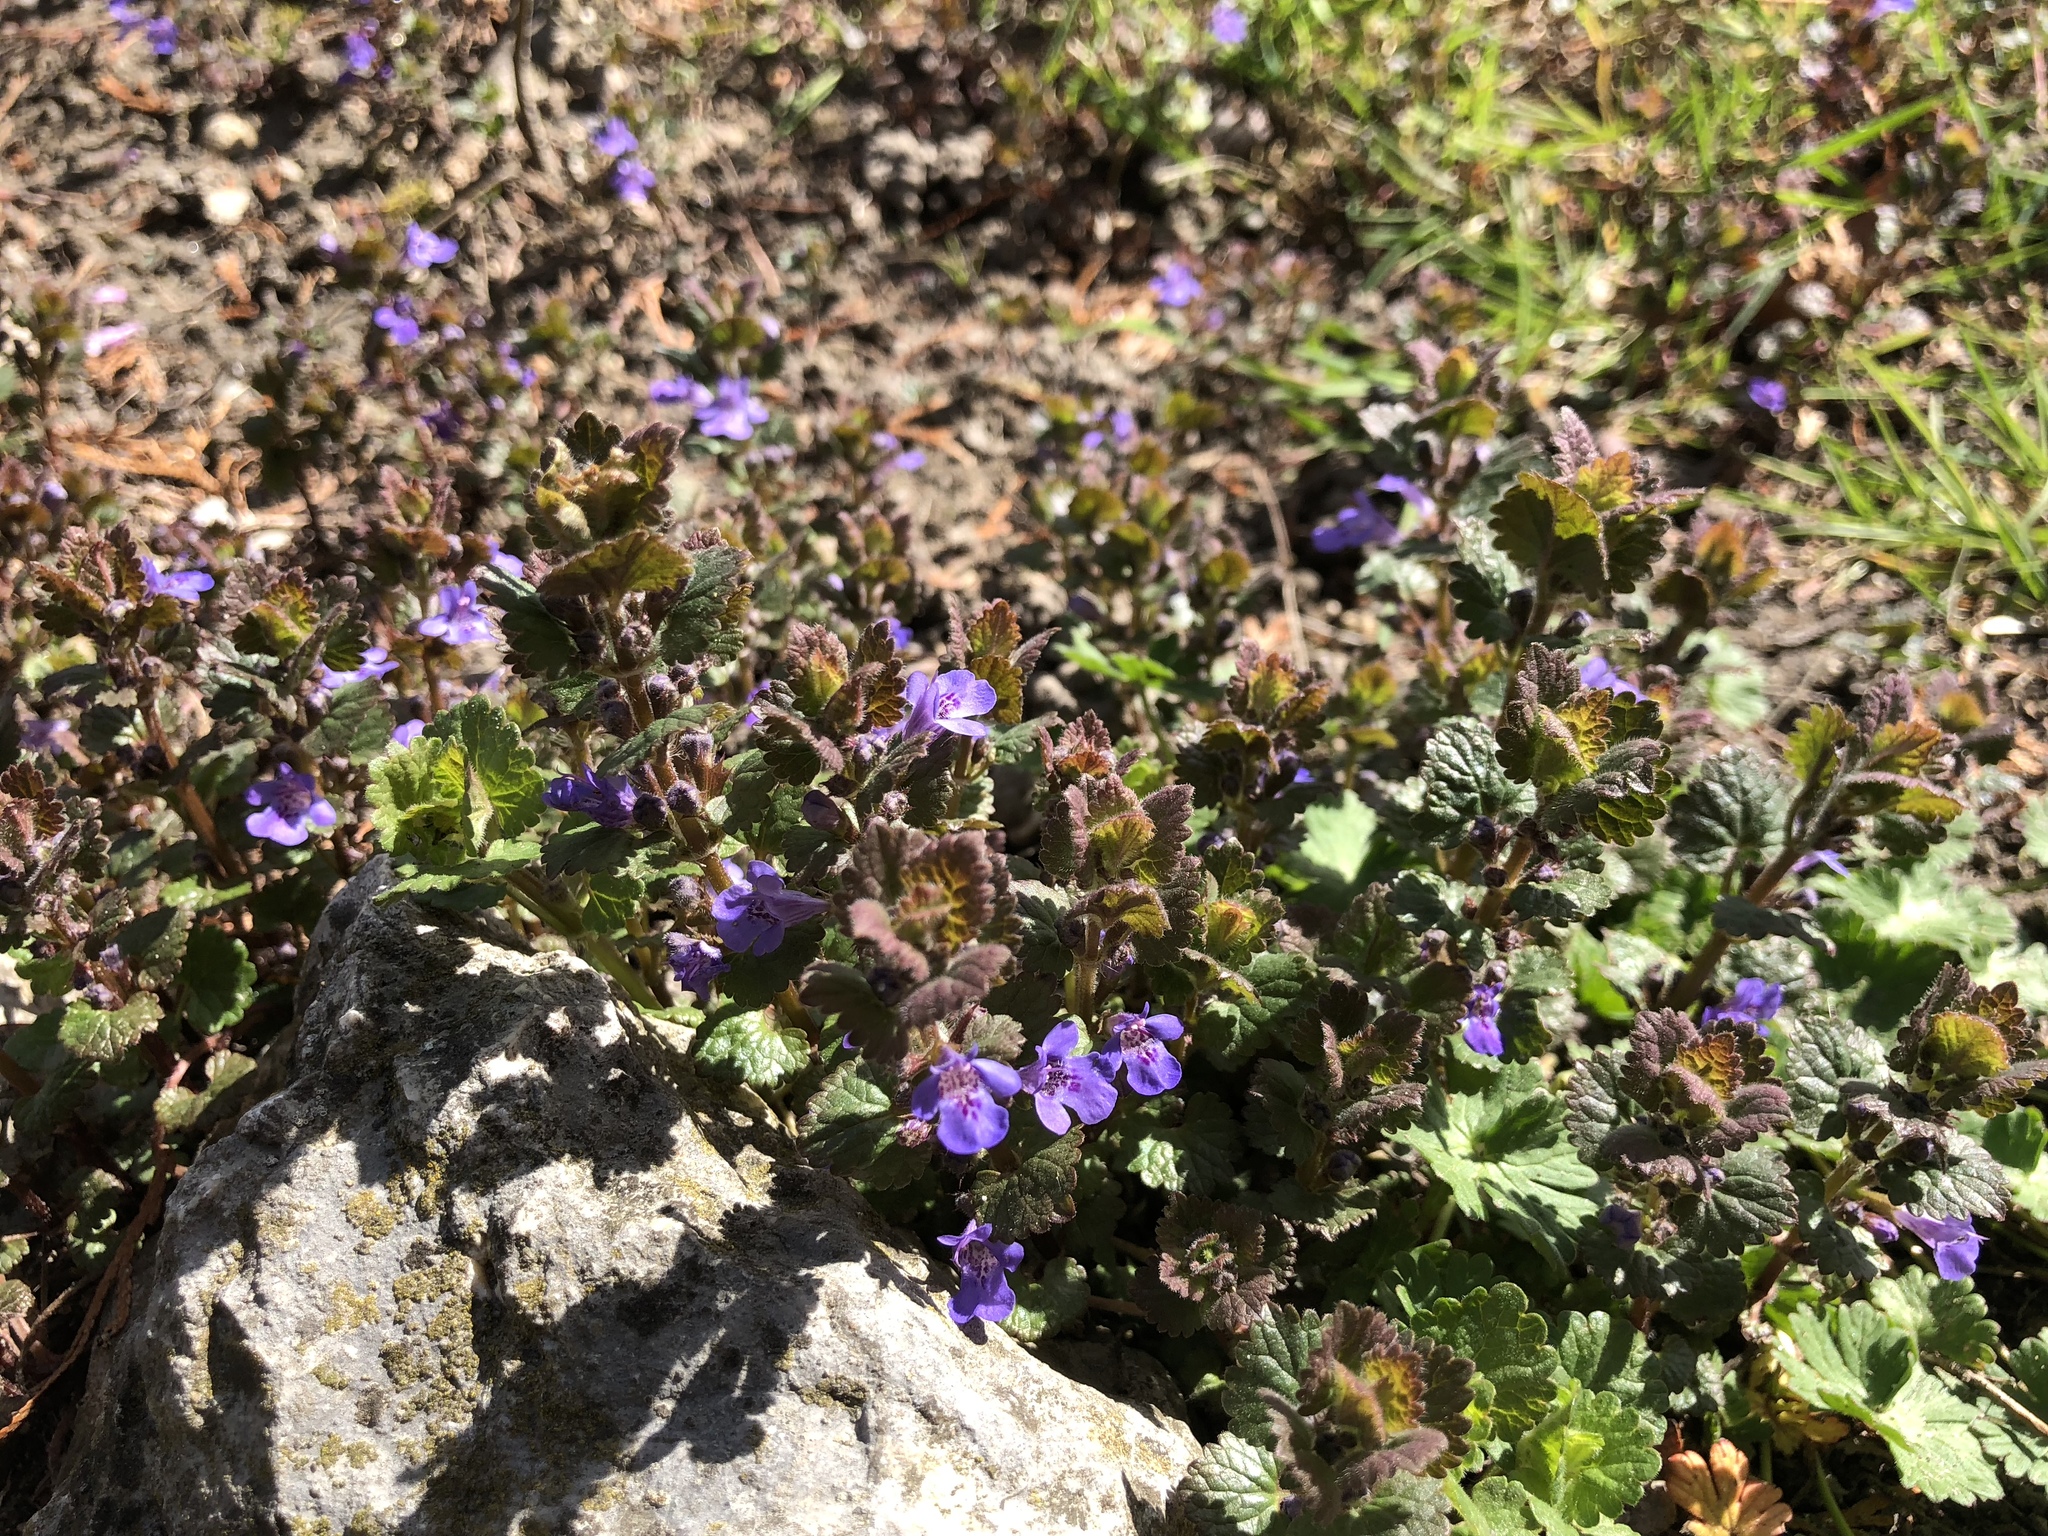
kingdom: Plantae
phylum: Tracheophyta
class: Magnoliopsida
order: Lamiales
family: Lamiaceae
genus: Glechoma
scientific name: Glechoma hederacea
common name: Ground ivy
